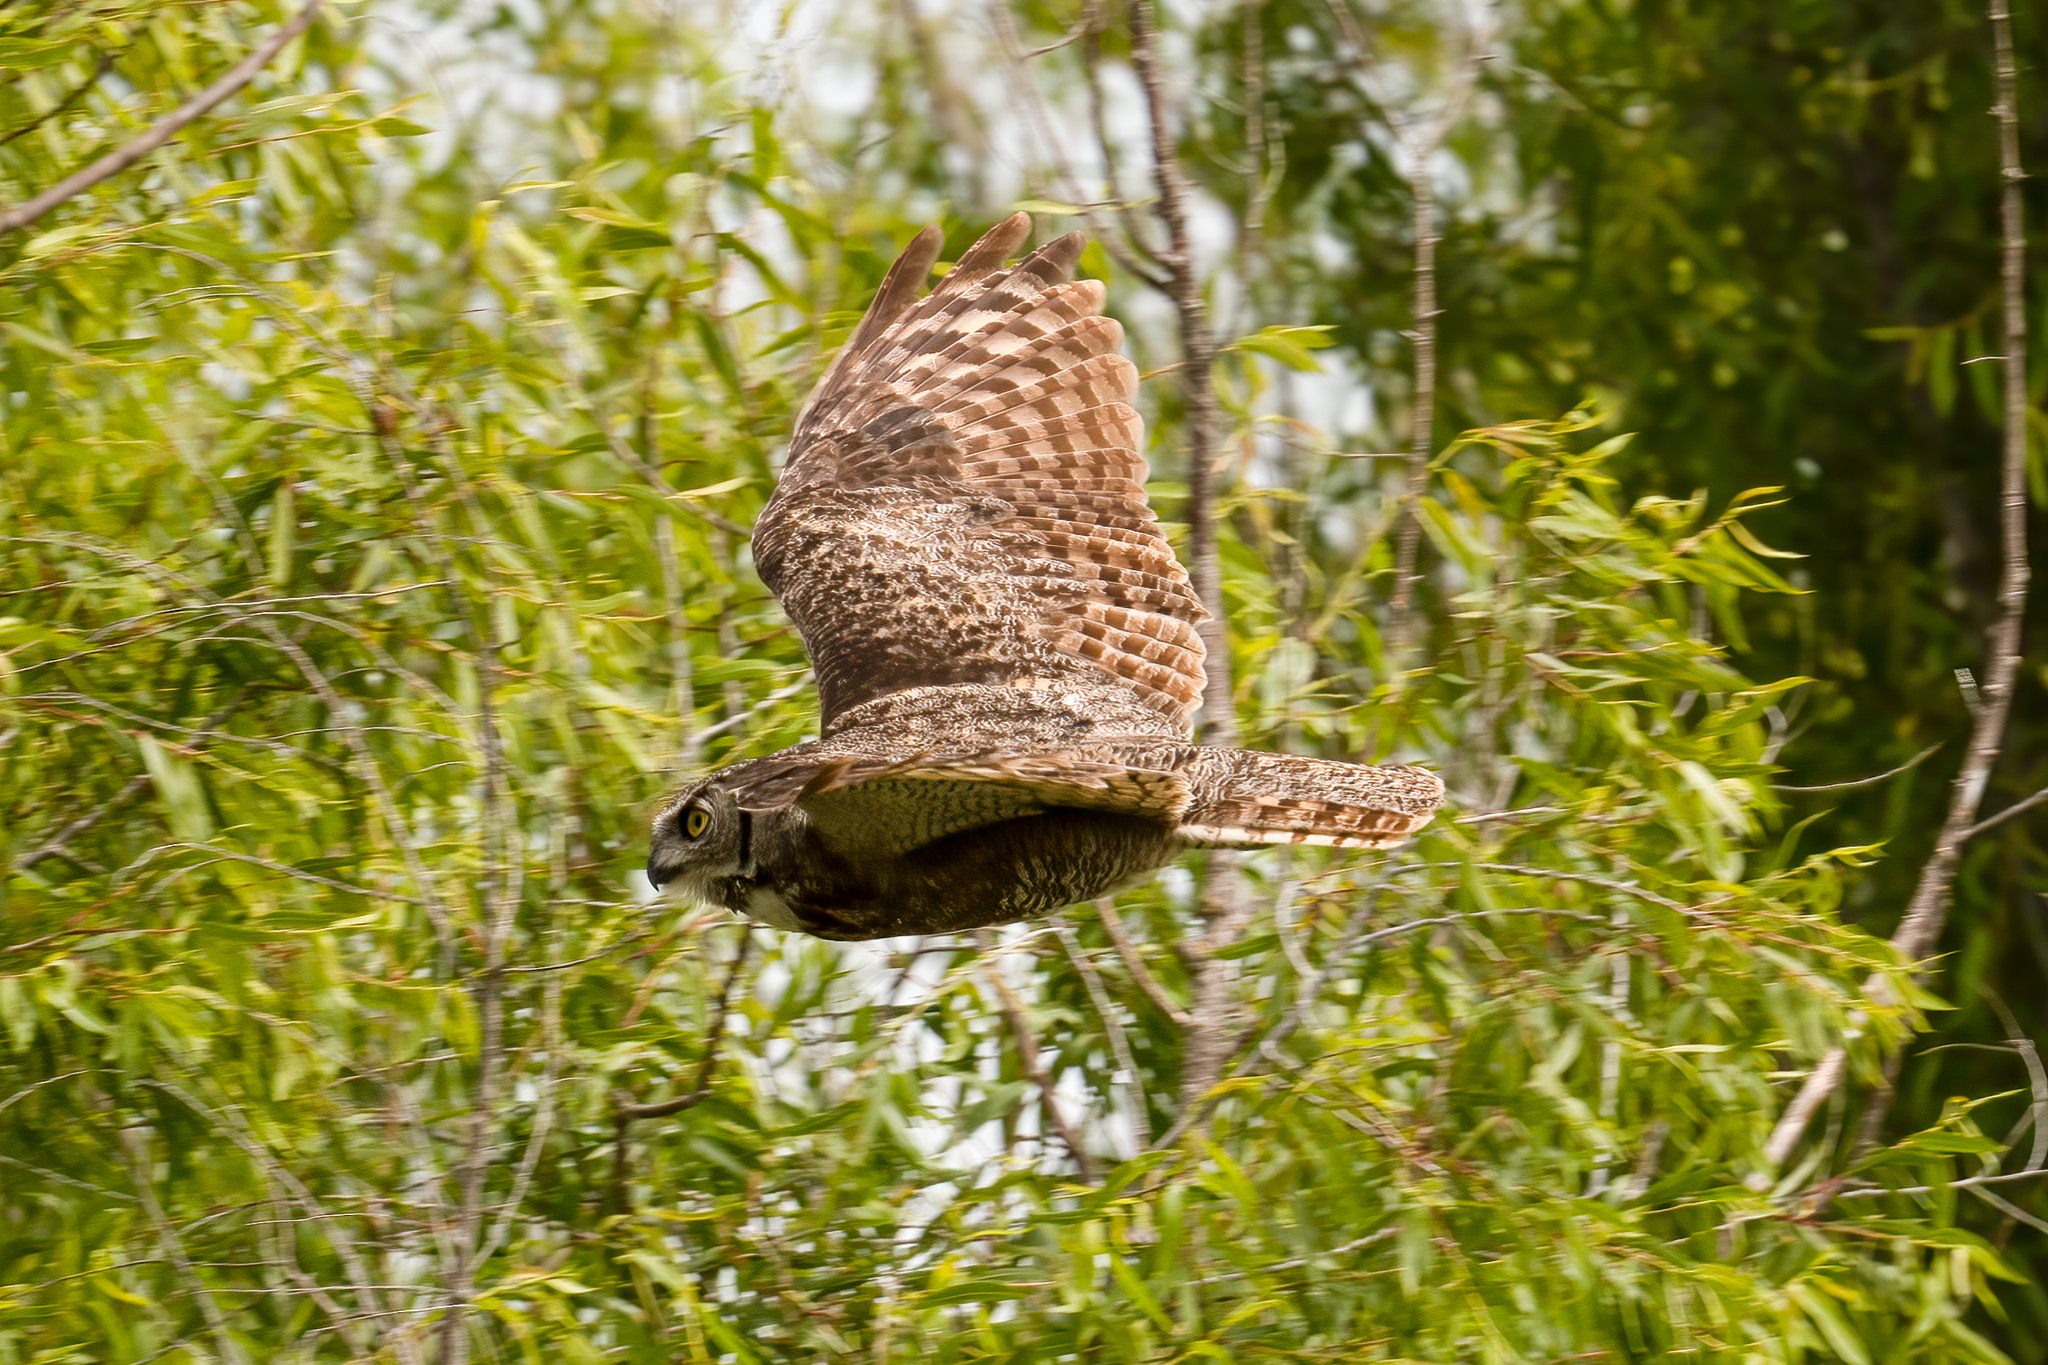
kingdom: Animalia
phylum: Chordata
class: Aves
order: Strigiformes
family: Strigidae
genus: Bubo
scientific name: Bubo virginianus
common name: Great horned owl
